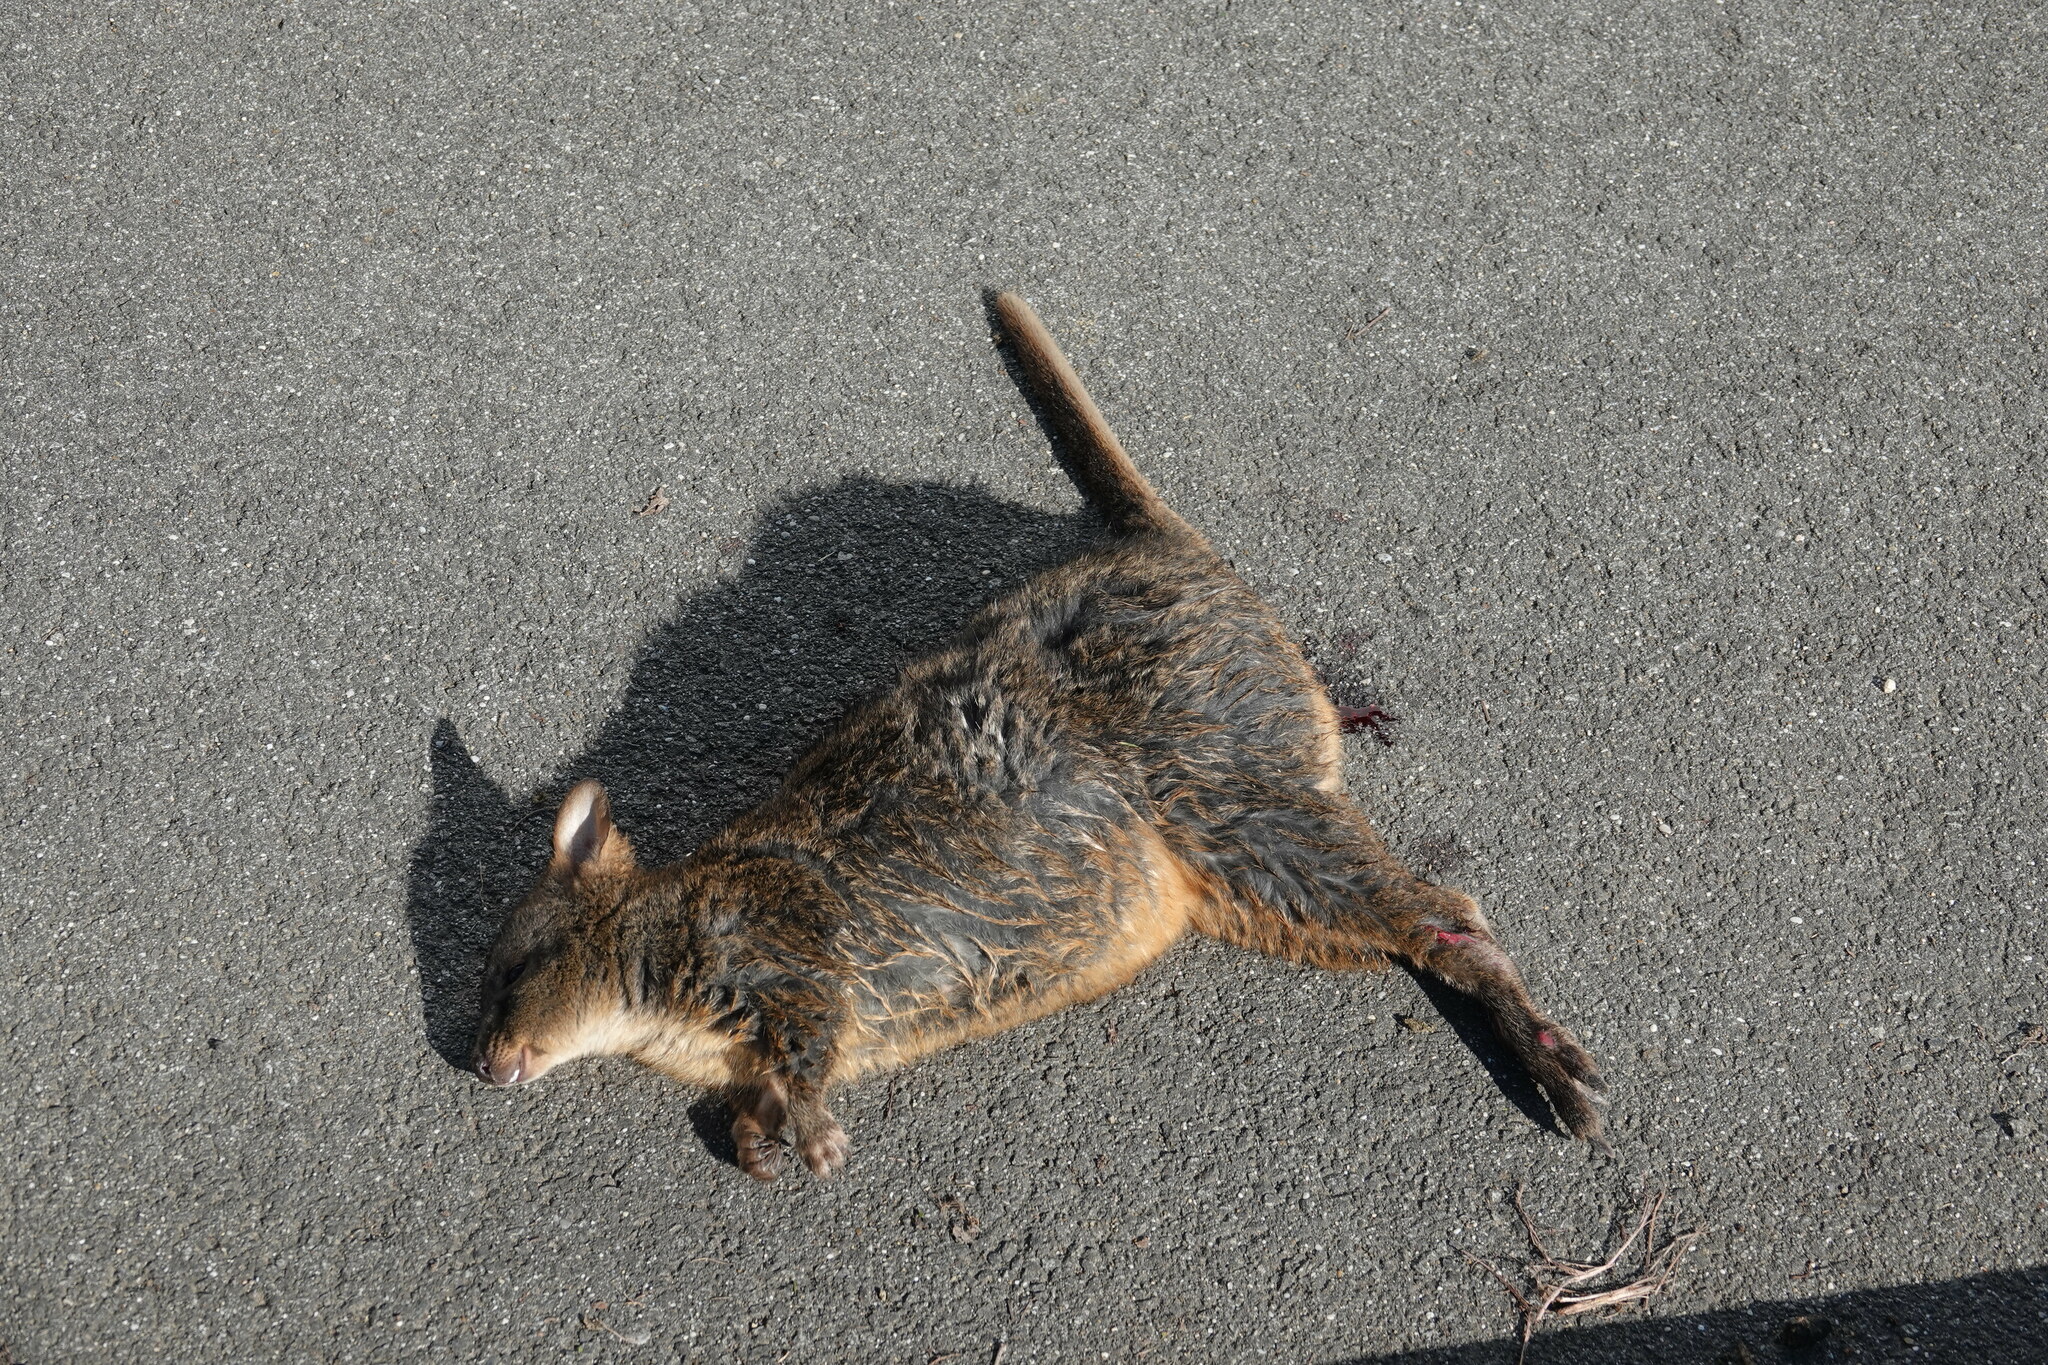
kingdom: Animalia
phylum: Chordata
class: Mammalia
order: Diprotodontia
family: Macropodidae
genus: Thylogale
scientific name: Thylogale billardierii
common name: Tasmanian pademelon
